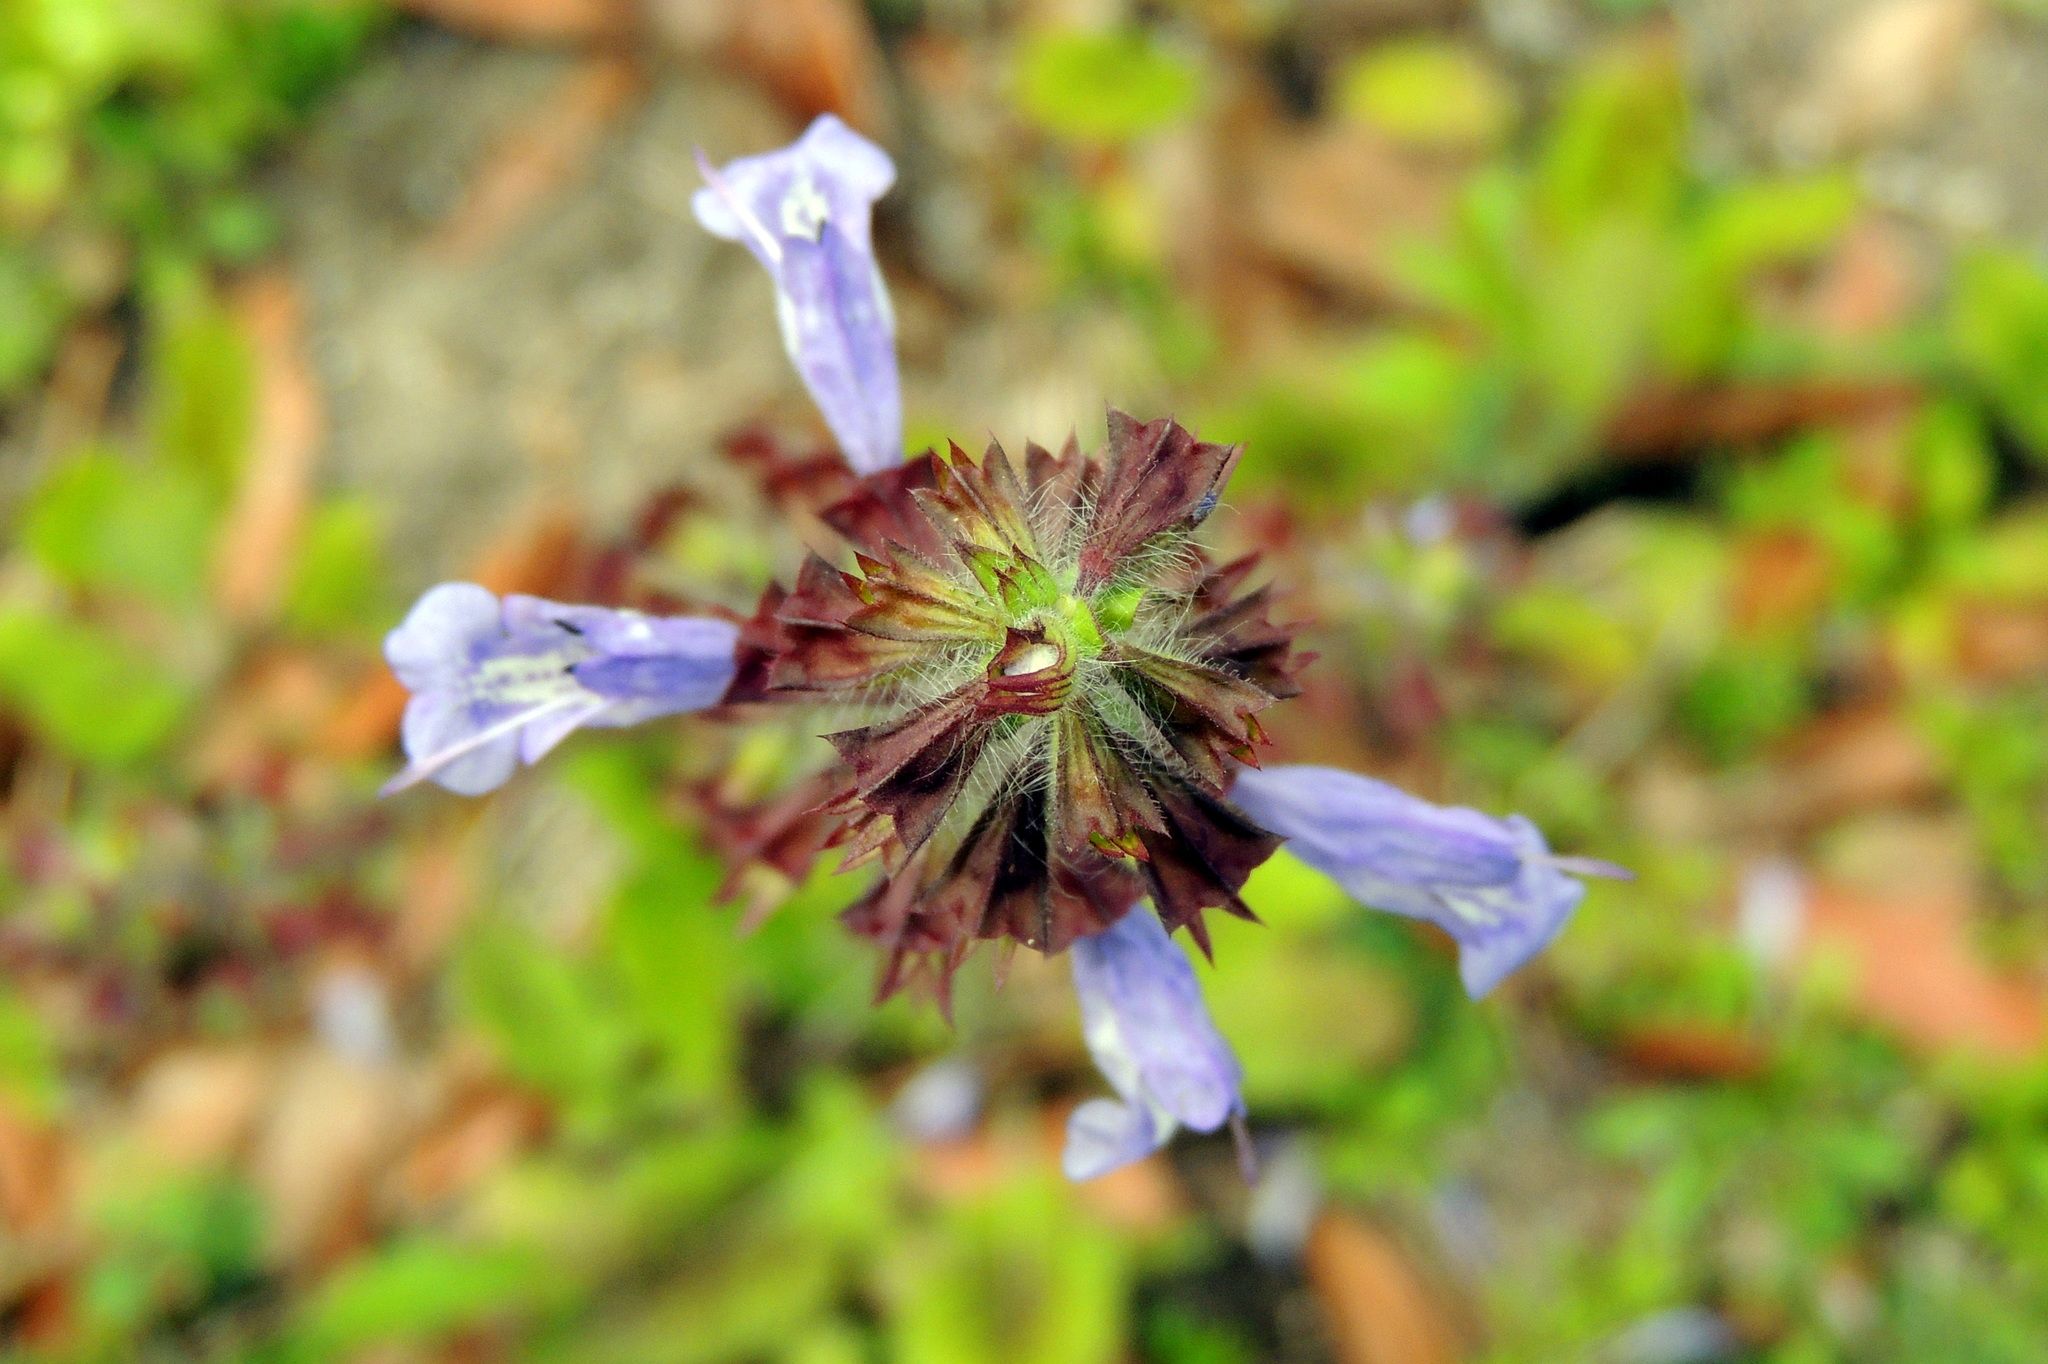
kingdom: Plantae
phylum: Tracheophyta
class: Magnoliopsida
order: Lamiales
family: Lamiaceae
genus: Salvia
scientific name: Salvia lyrata
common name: Cancerweed
